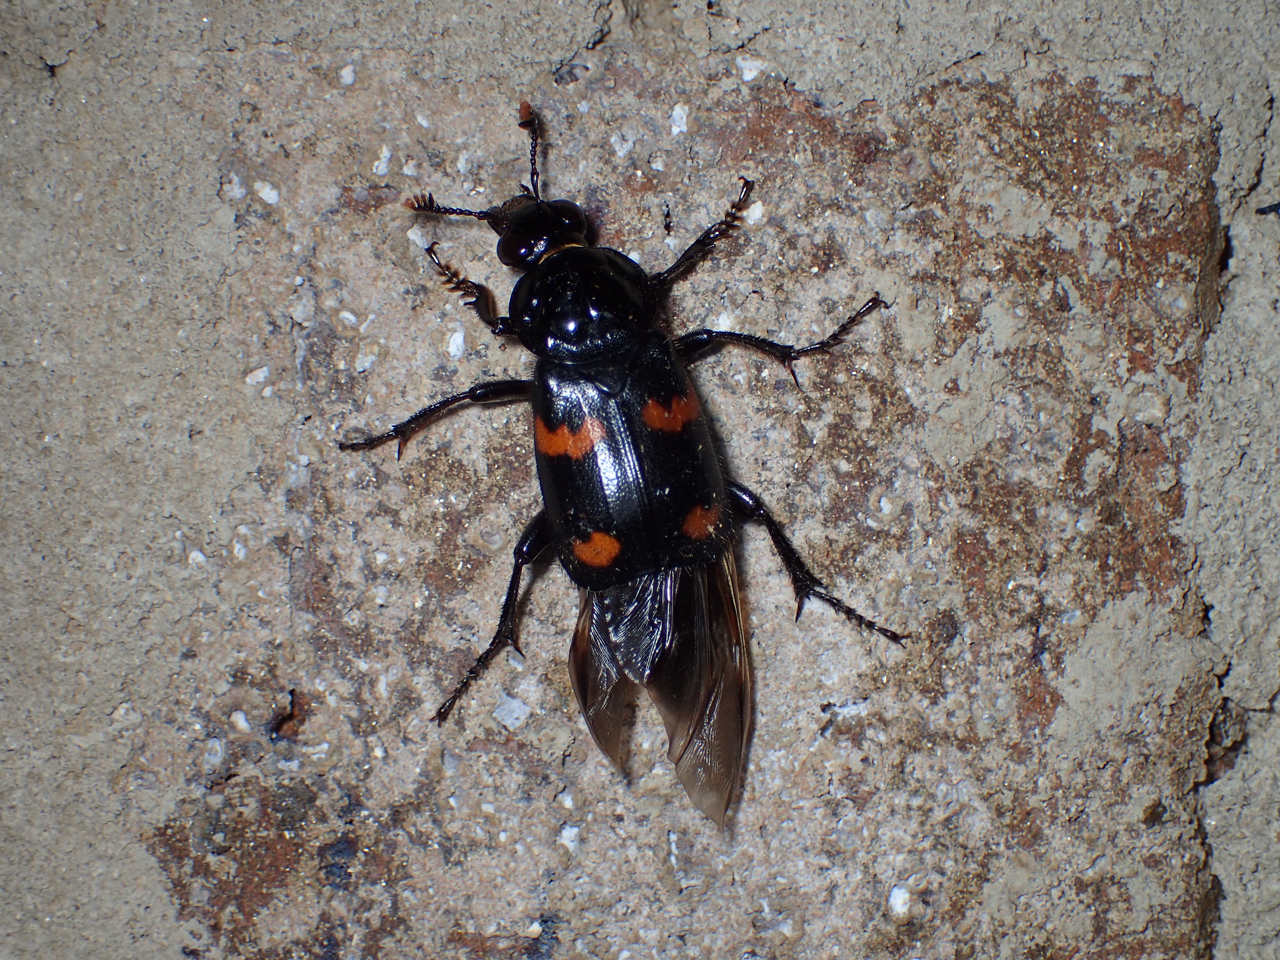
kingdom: Animalia
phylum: Arthropoda
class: Insecta
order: Coleoptera
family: Staphylinidae
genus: Nicrophorus
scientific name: Nicrophorus orbicollis
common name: Roundneck sexton beetle
